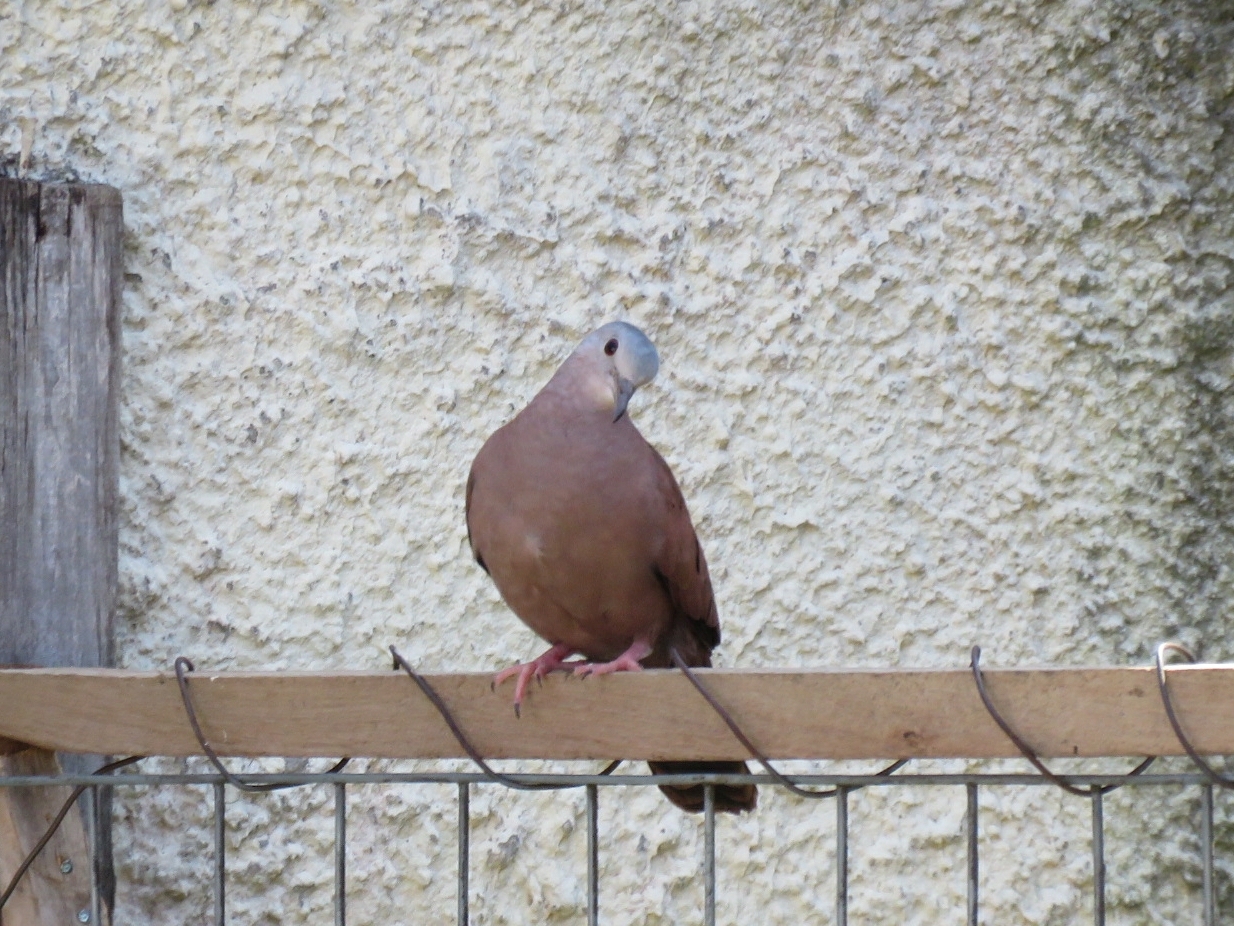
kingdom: Animalia
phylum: Chordata
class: Aves
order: Columbiformes
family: Columbidae
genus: Columbina
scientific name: Columbina talpacoti
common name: Ruddy ground dove
